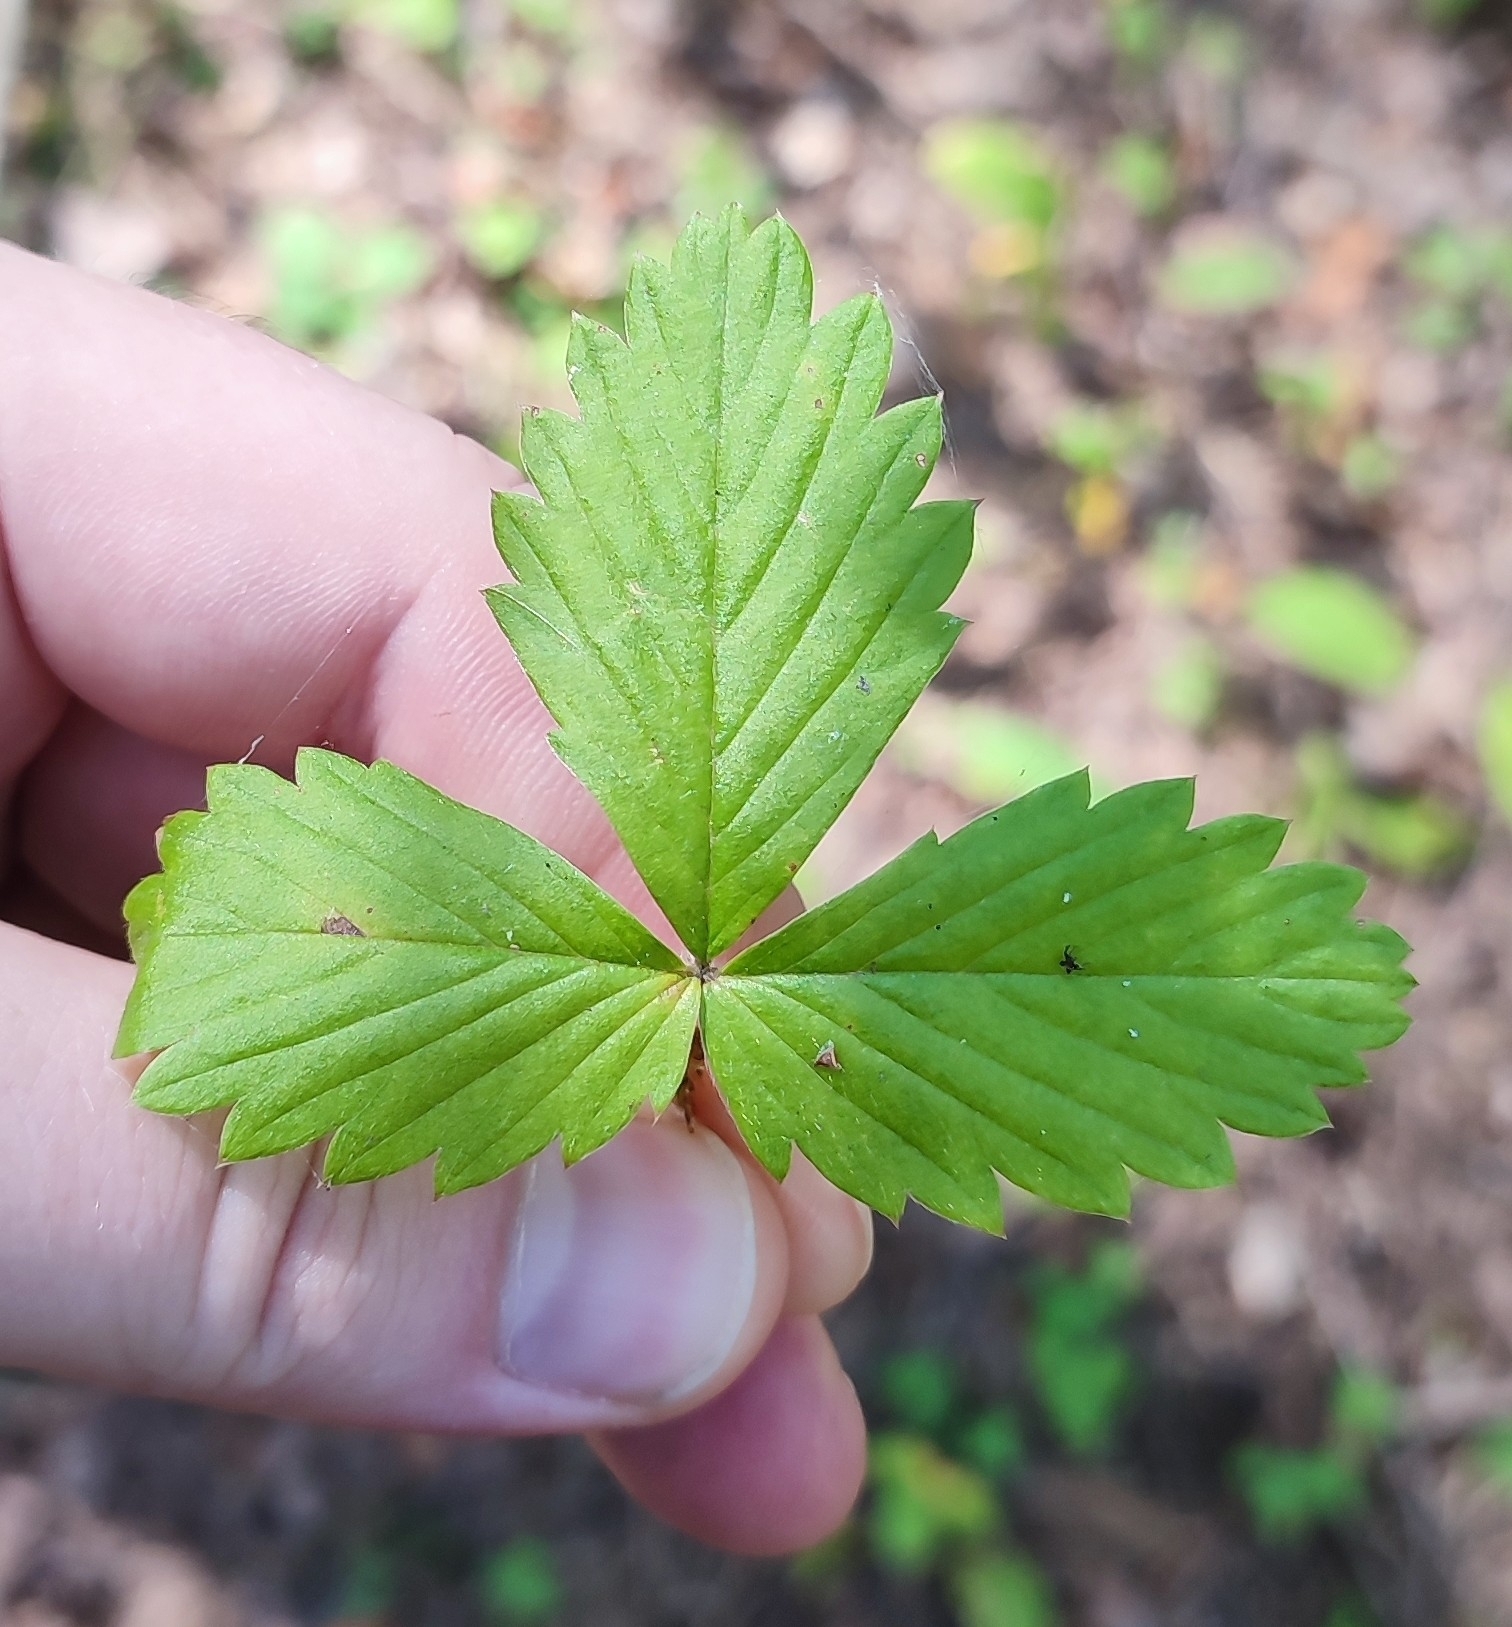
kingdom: Plantae
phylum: Tracheophyta
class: Magnoliopsida
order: Rosales
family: Rosaceae
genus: Fragaria
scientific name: Fragaria vesca
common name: Wild strawberry
